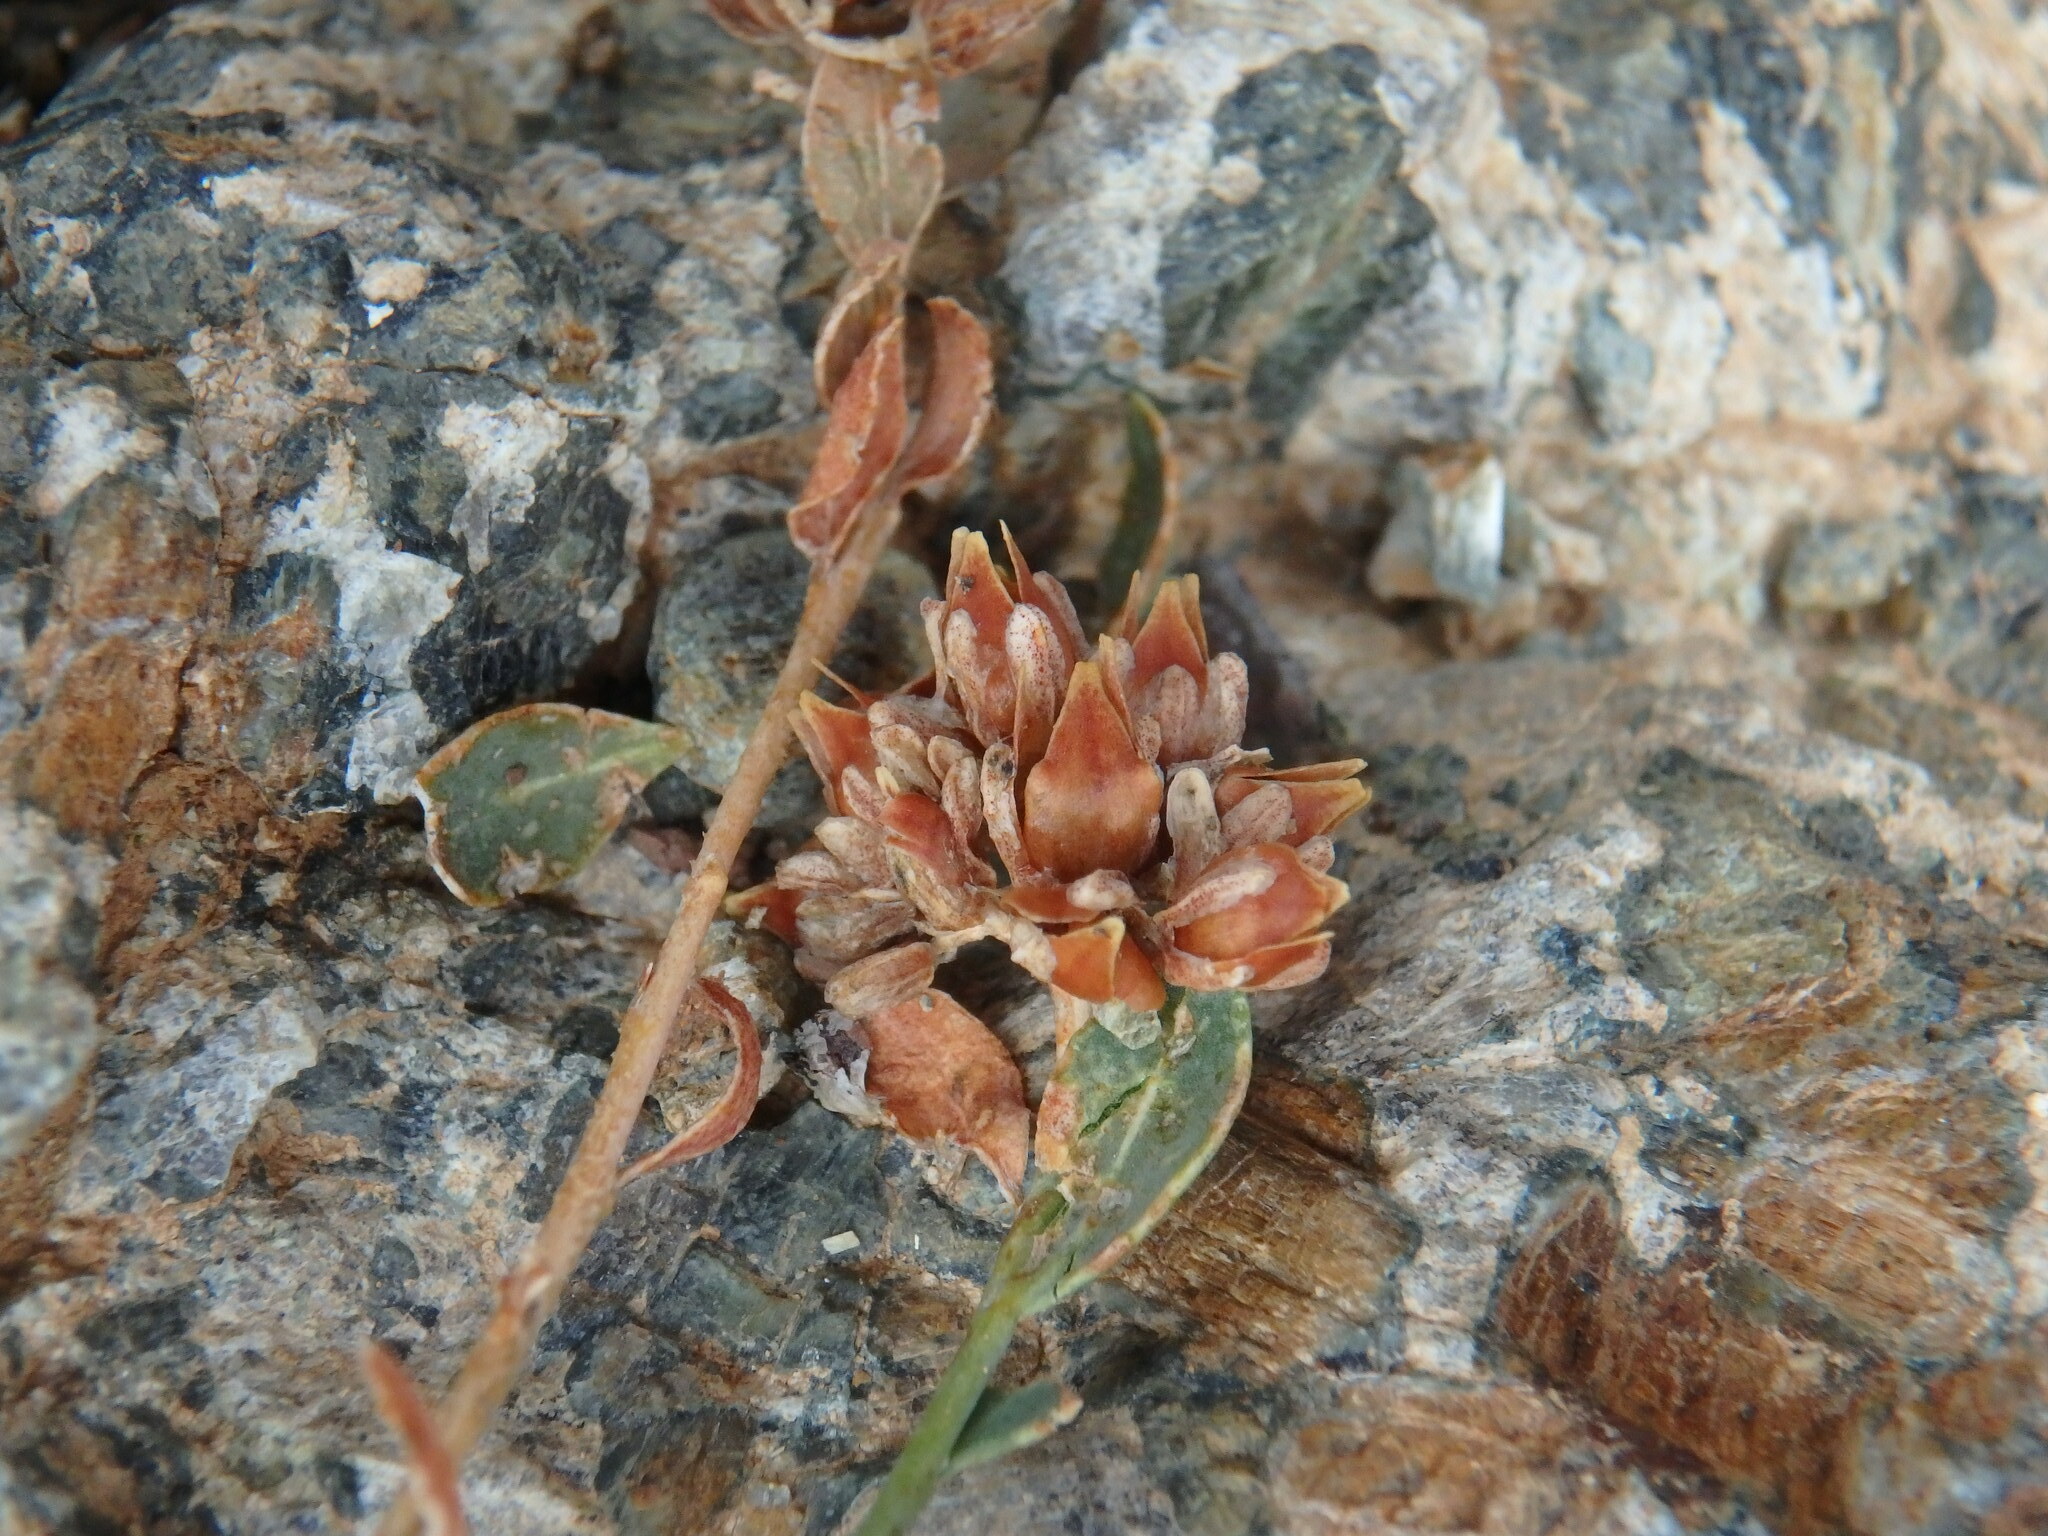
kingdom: Plantae
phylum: Tracheophyta
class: Magnoliopsida
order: Caryophyllales
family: Caryophyllaceae
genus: Telephium
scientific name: Telephium imperati
